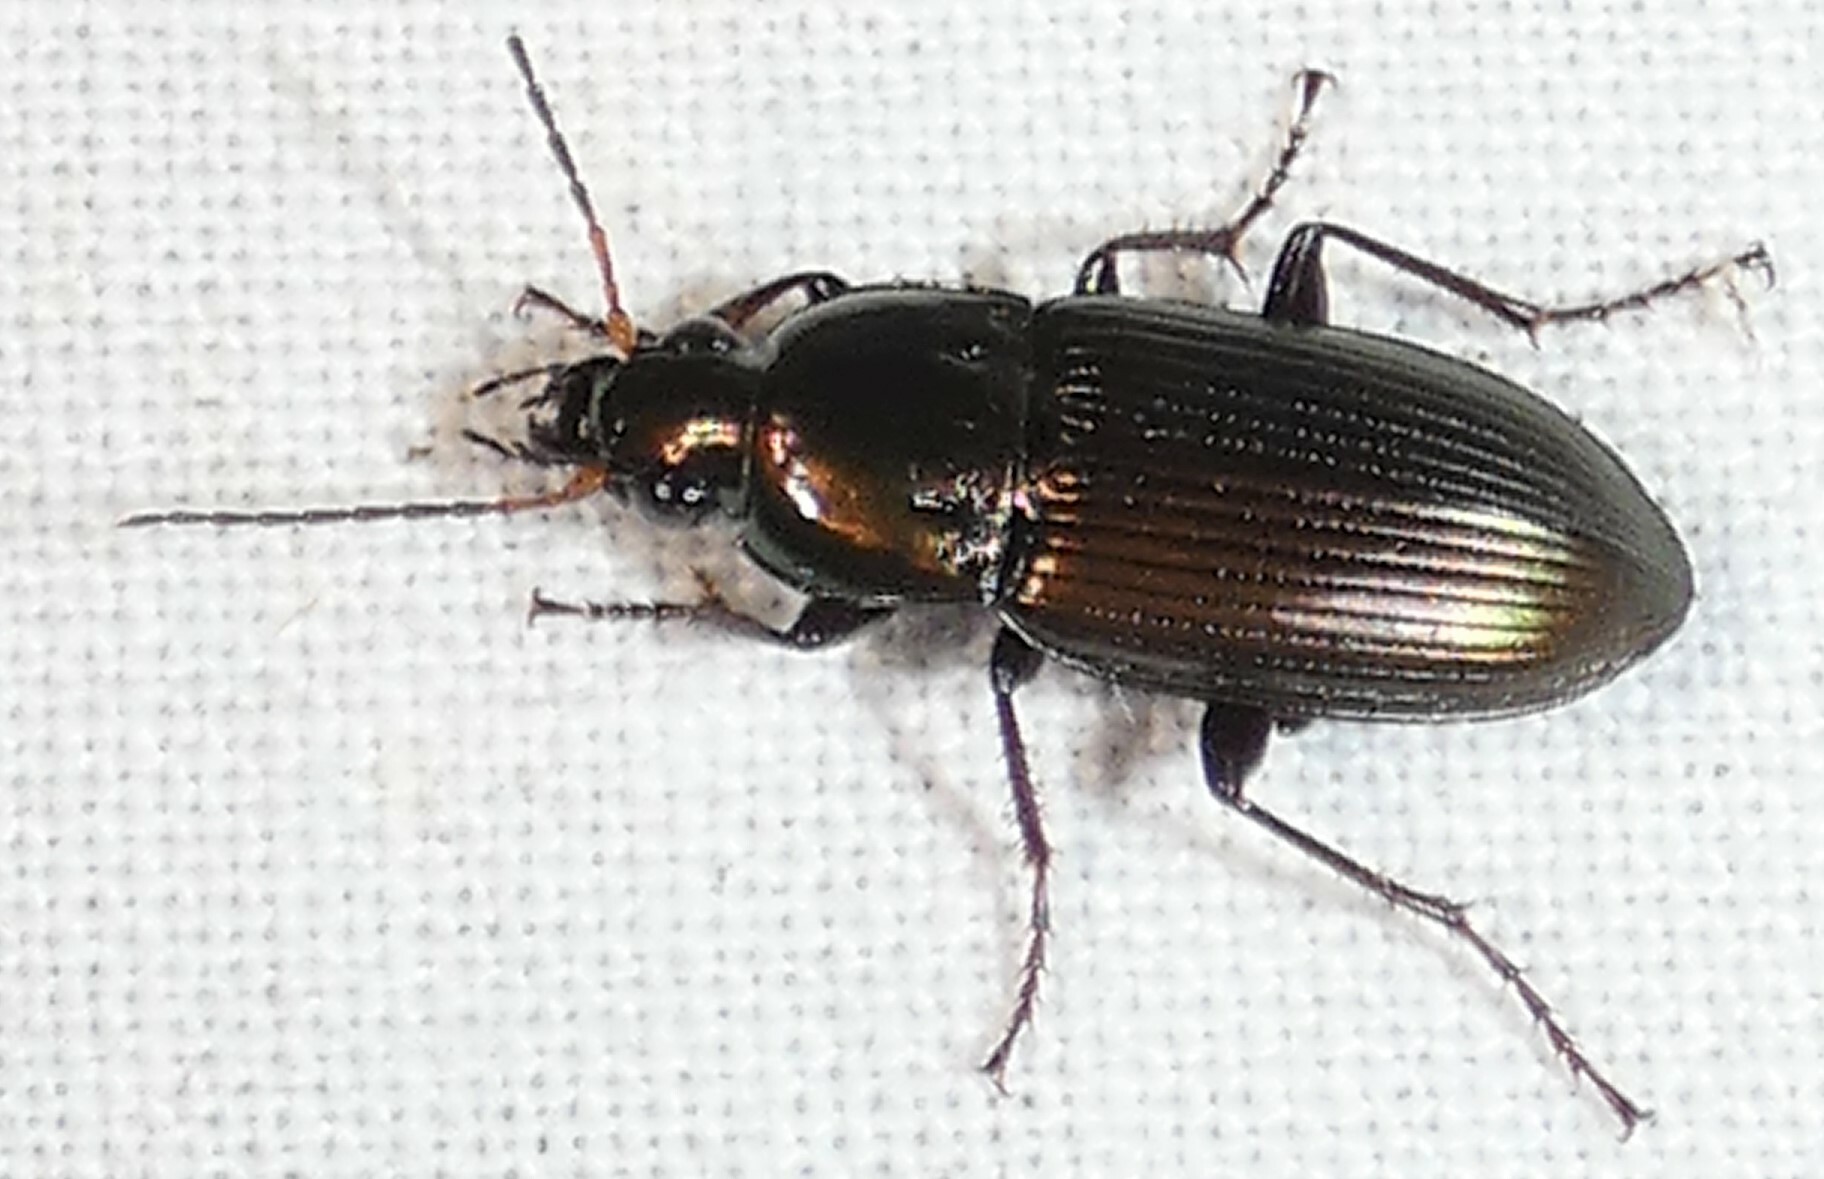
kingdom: Animalia
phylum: Arthropoda
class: Insecta
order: Coleoptera
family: Carabidae
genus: Poecilus
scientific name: Poecilus chalcites
